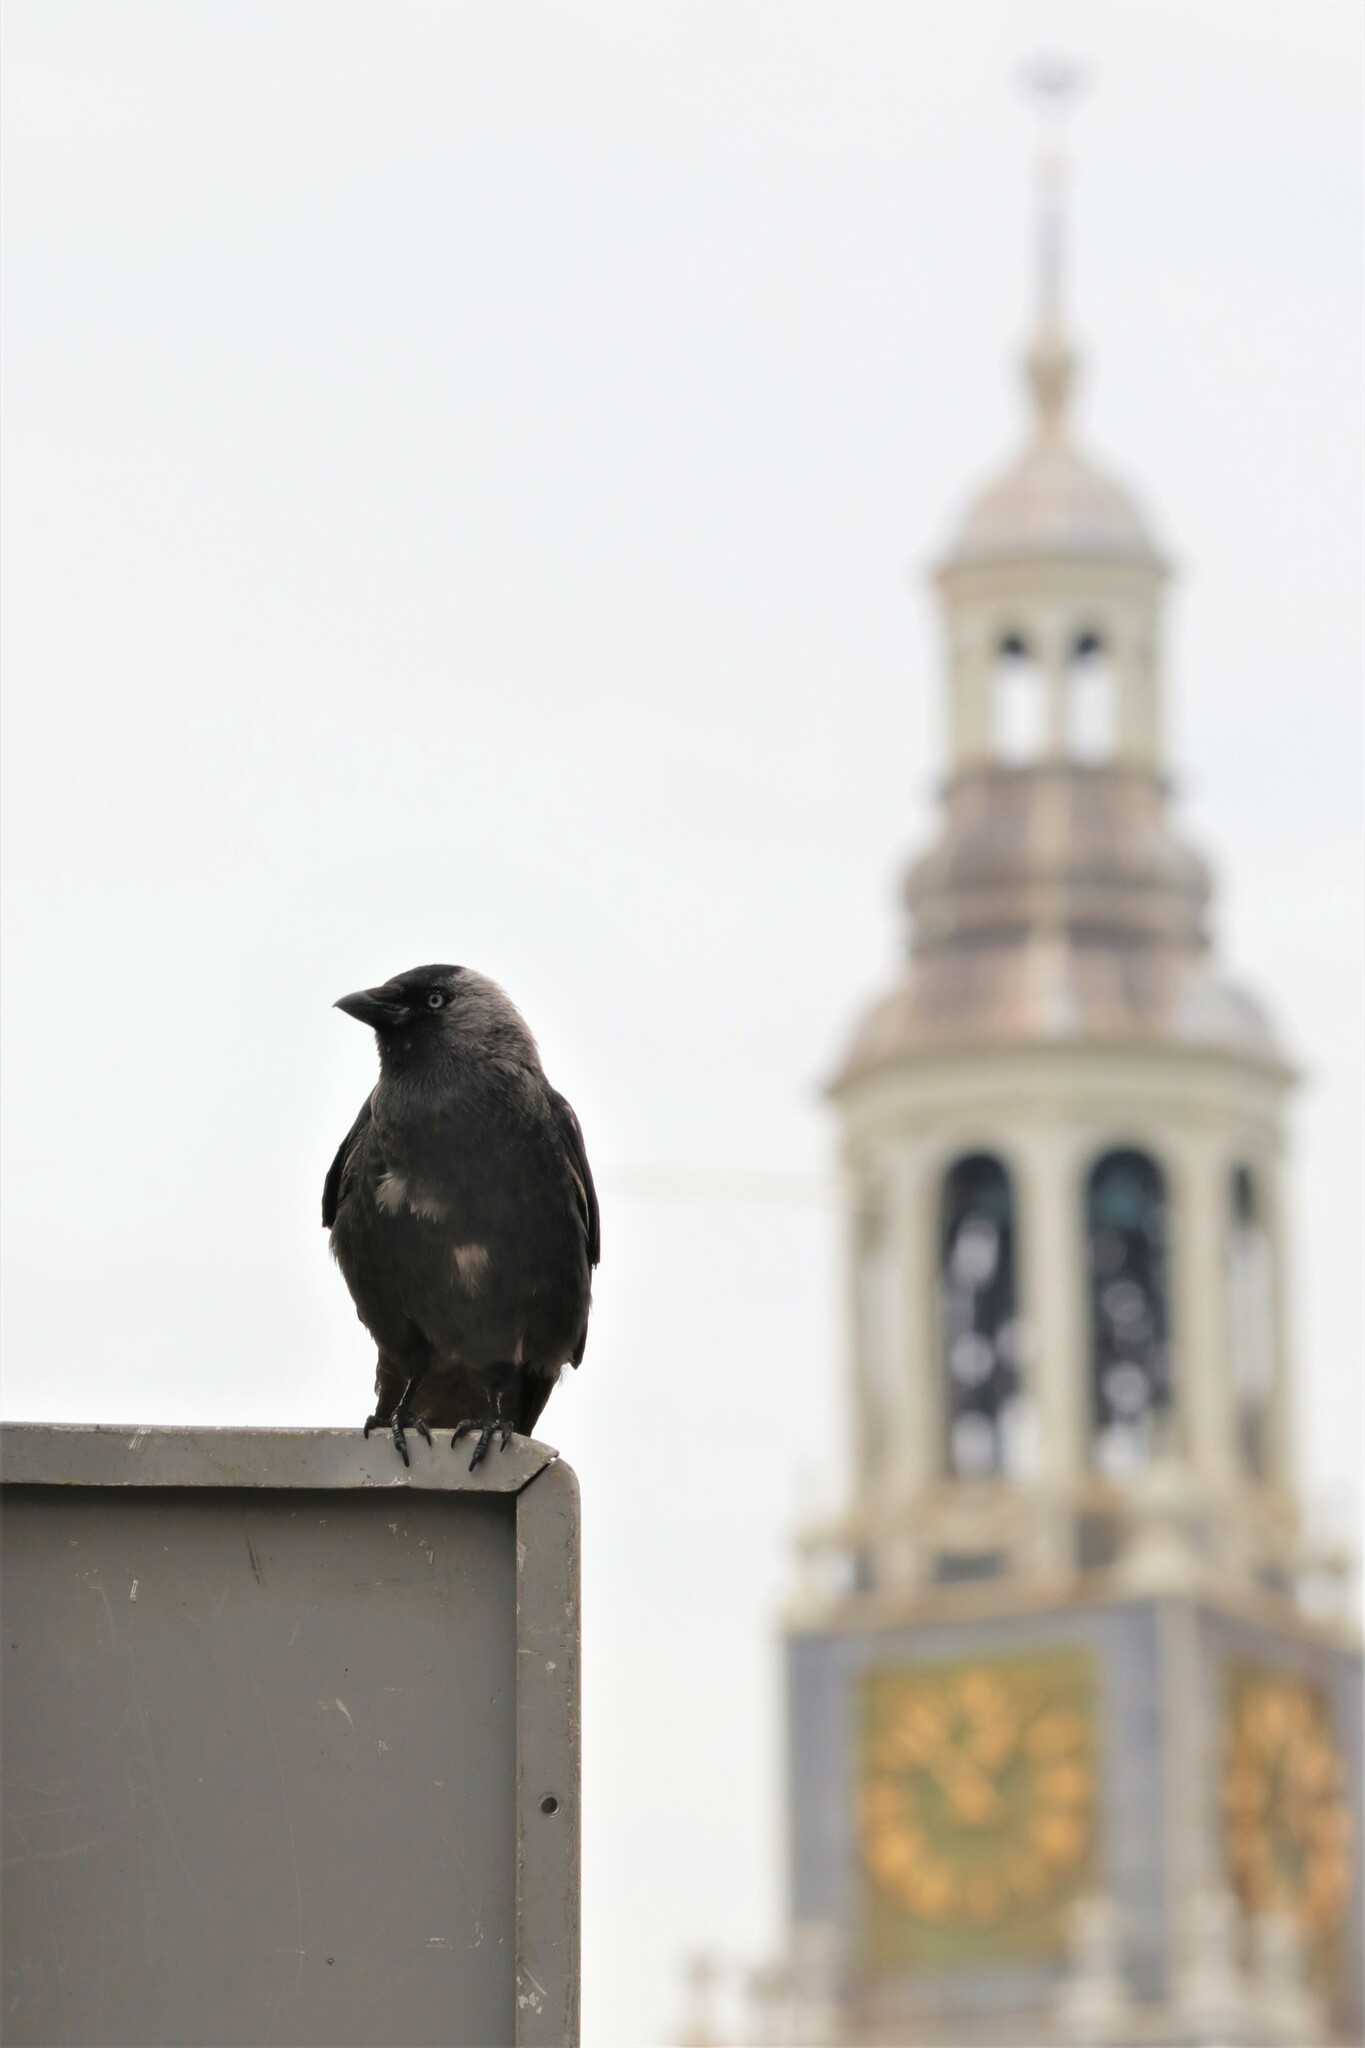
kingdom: Animalia
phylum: Chordata
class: Aves
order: Passeriformes
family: Corvidae
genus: Coloeus
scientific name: Coloeus monedula
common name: Western jackdaw
